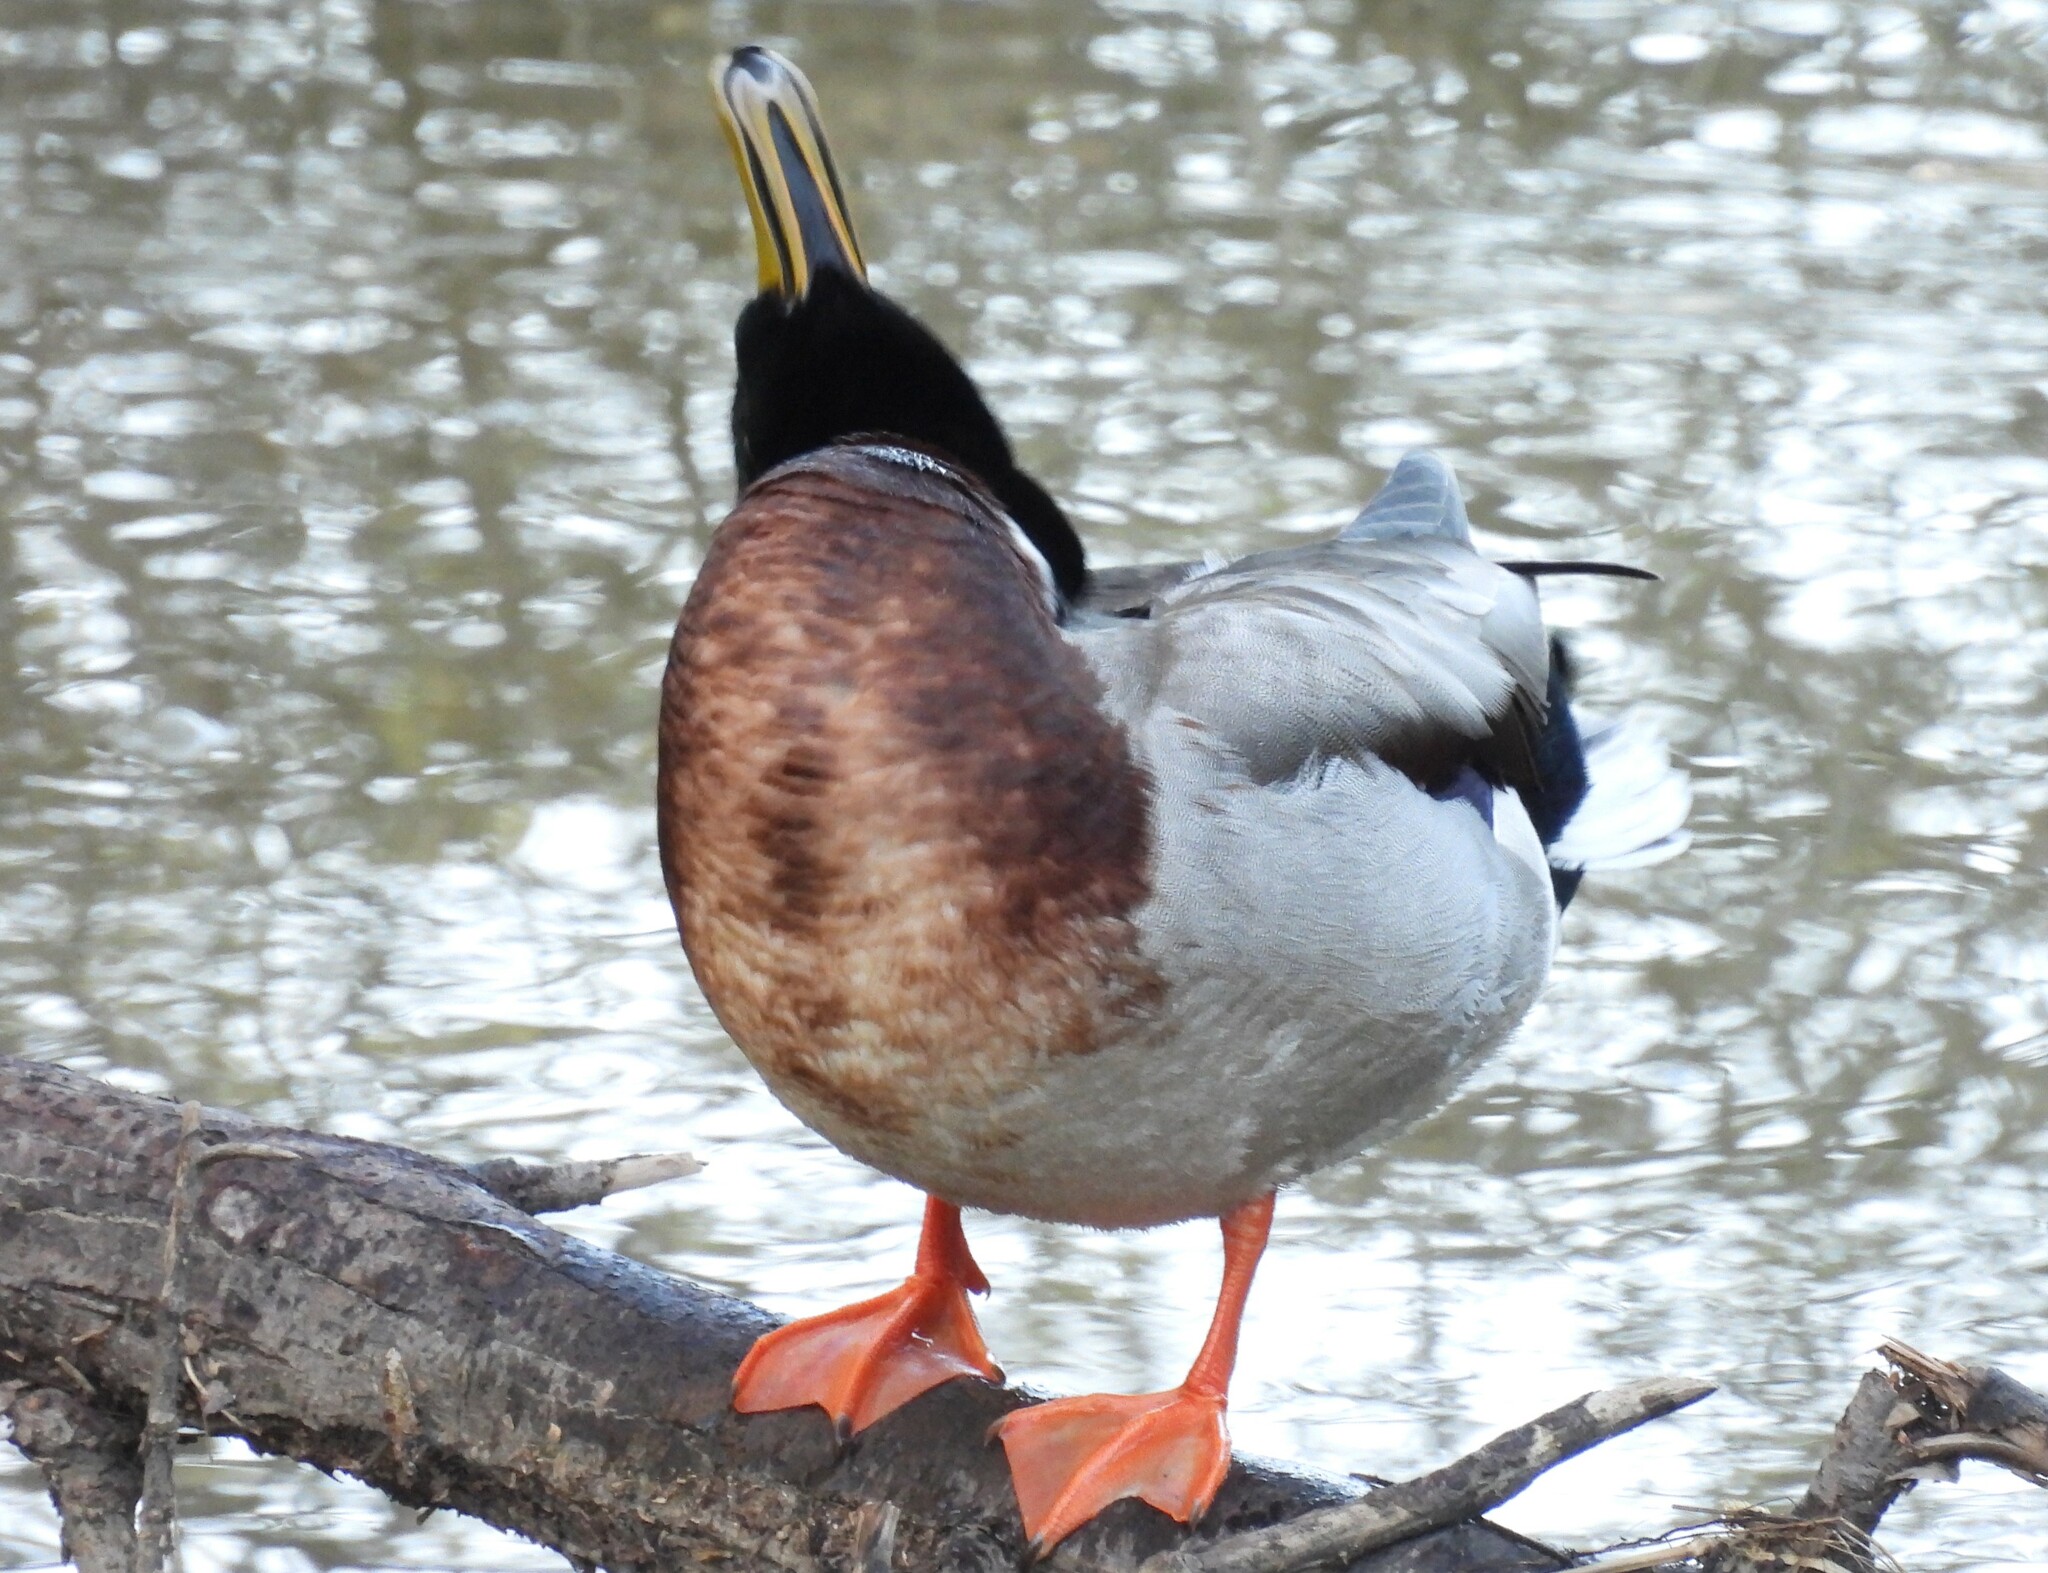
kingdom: Animalia
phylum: Chordata
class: Aves
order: Anseriformes
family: Anatidae
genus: Anas
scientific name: Anas platyrhynchos
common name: Mallard
